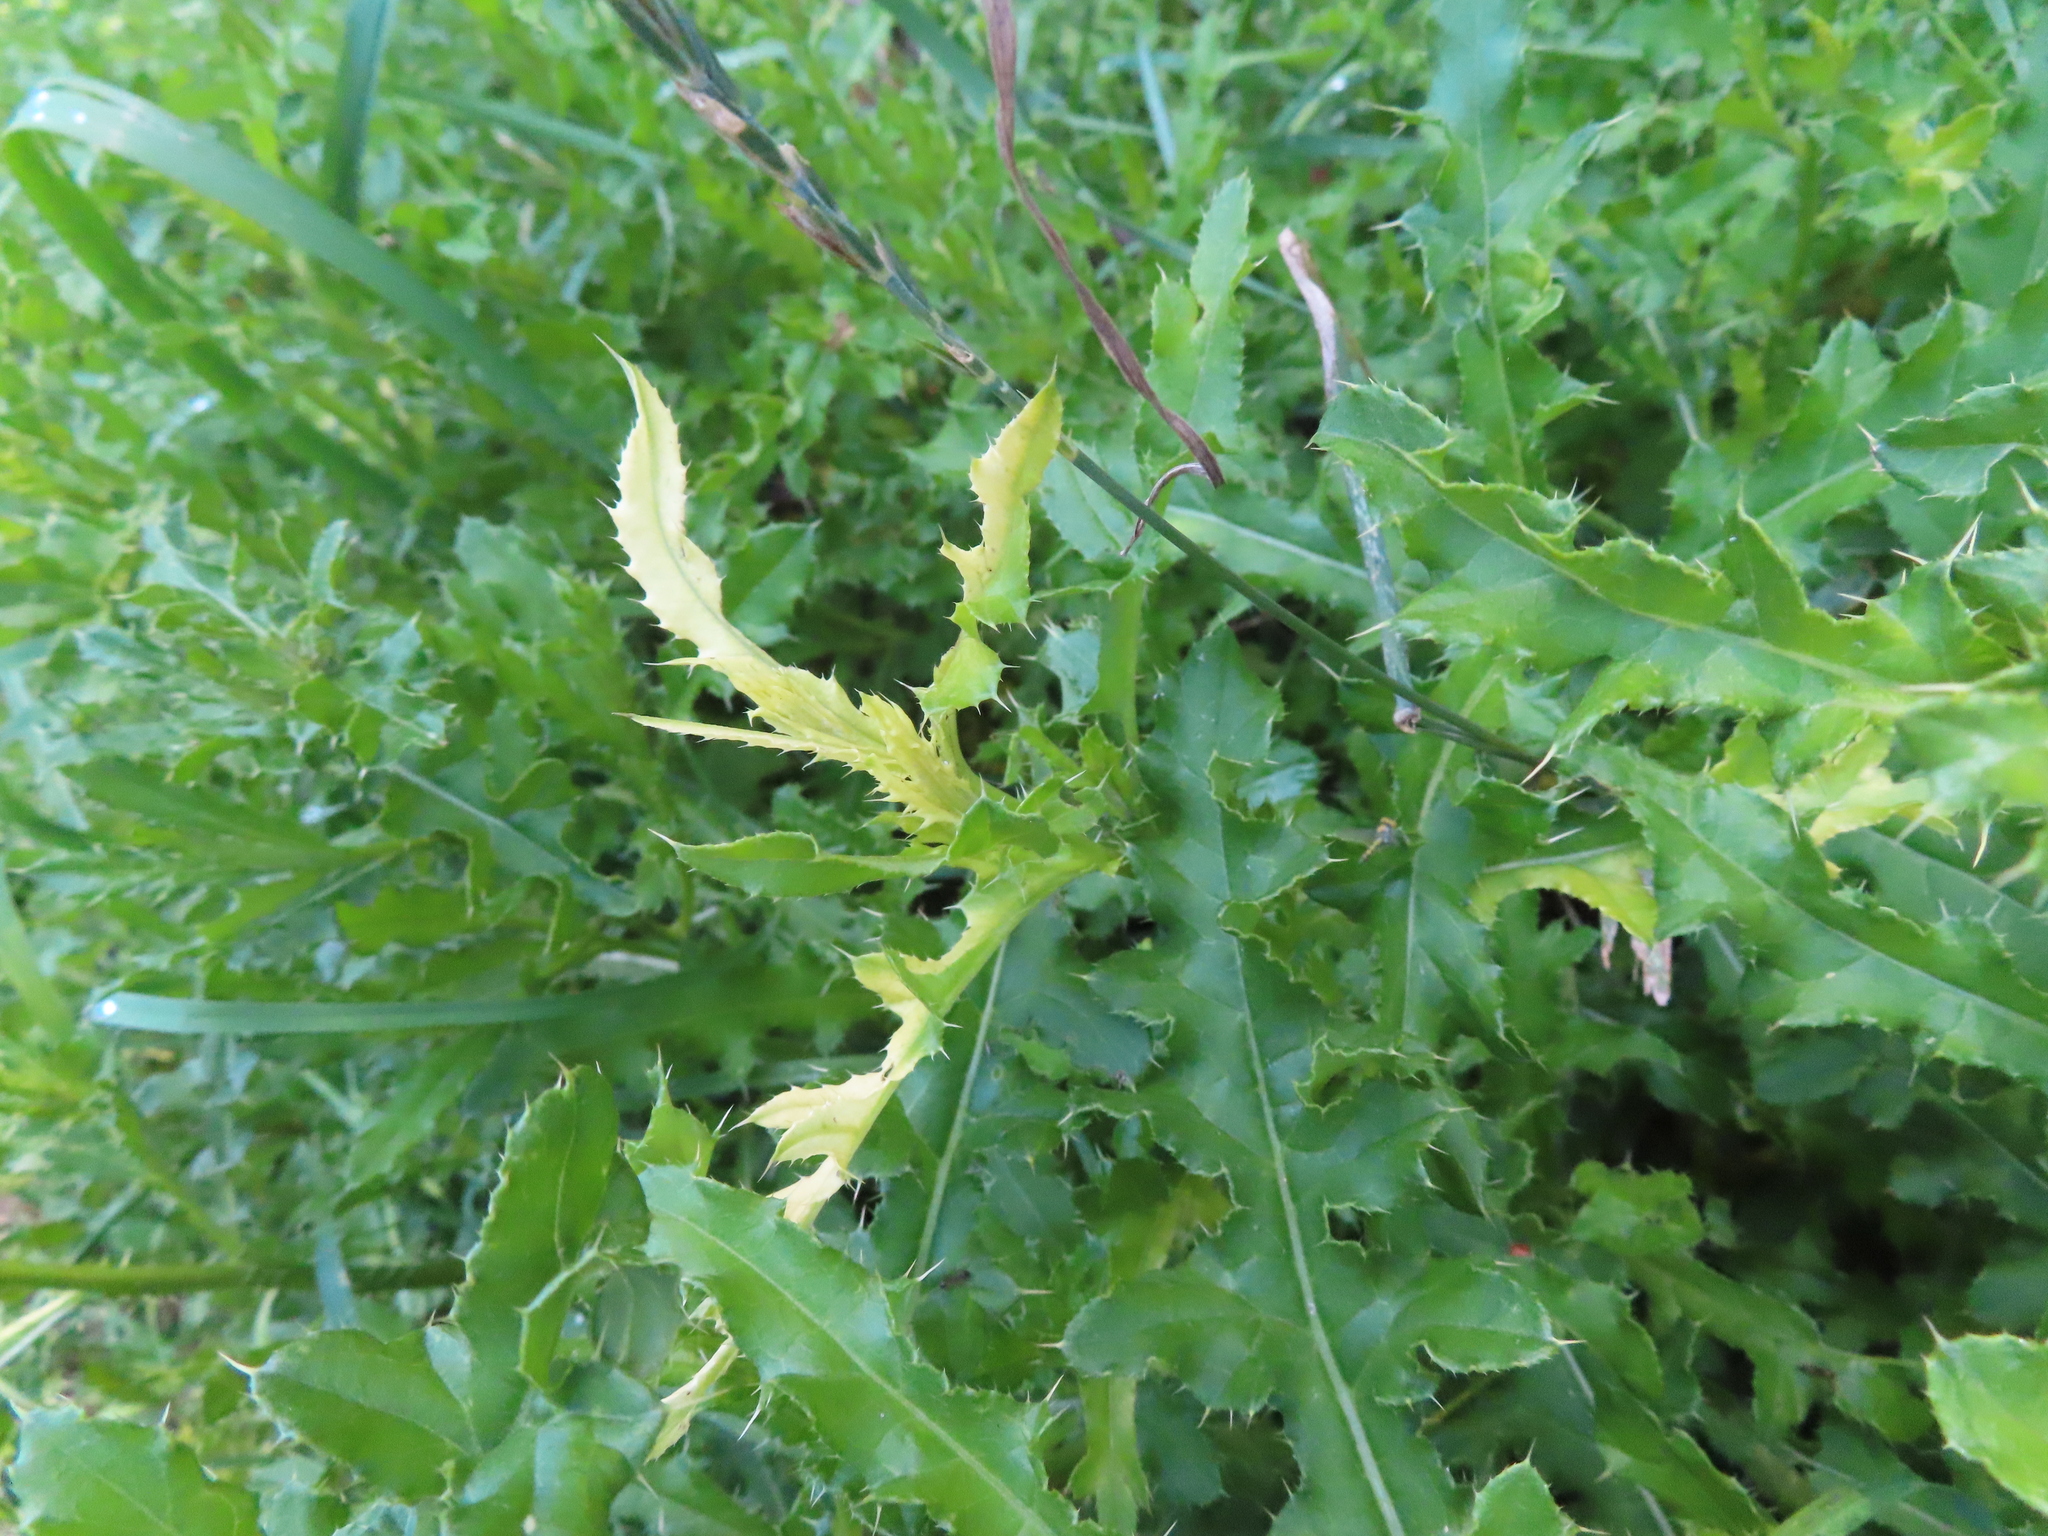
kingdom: Bacteria
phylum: Proteobacteria
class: Gammaproteobacteria
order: Pseudomonadales
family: Pseudomonadaceae
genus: Pseudomonas
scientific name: Pseudomonas syringae
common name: Bacterial speck
